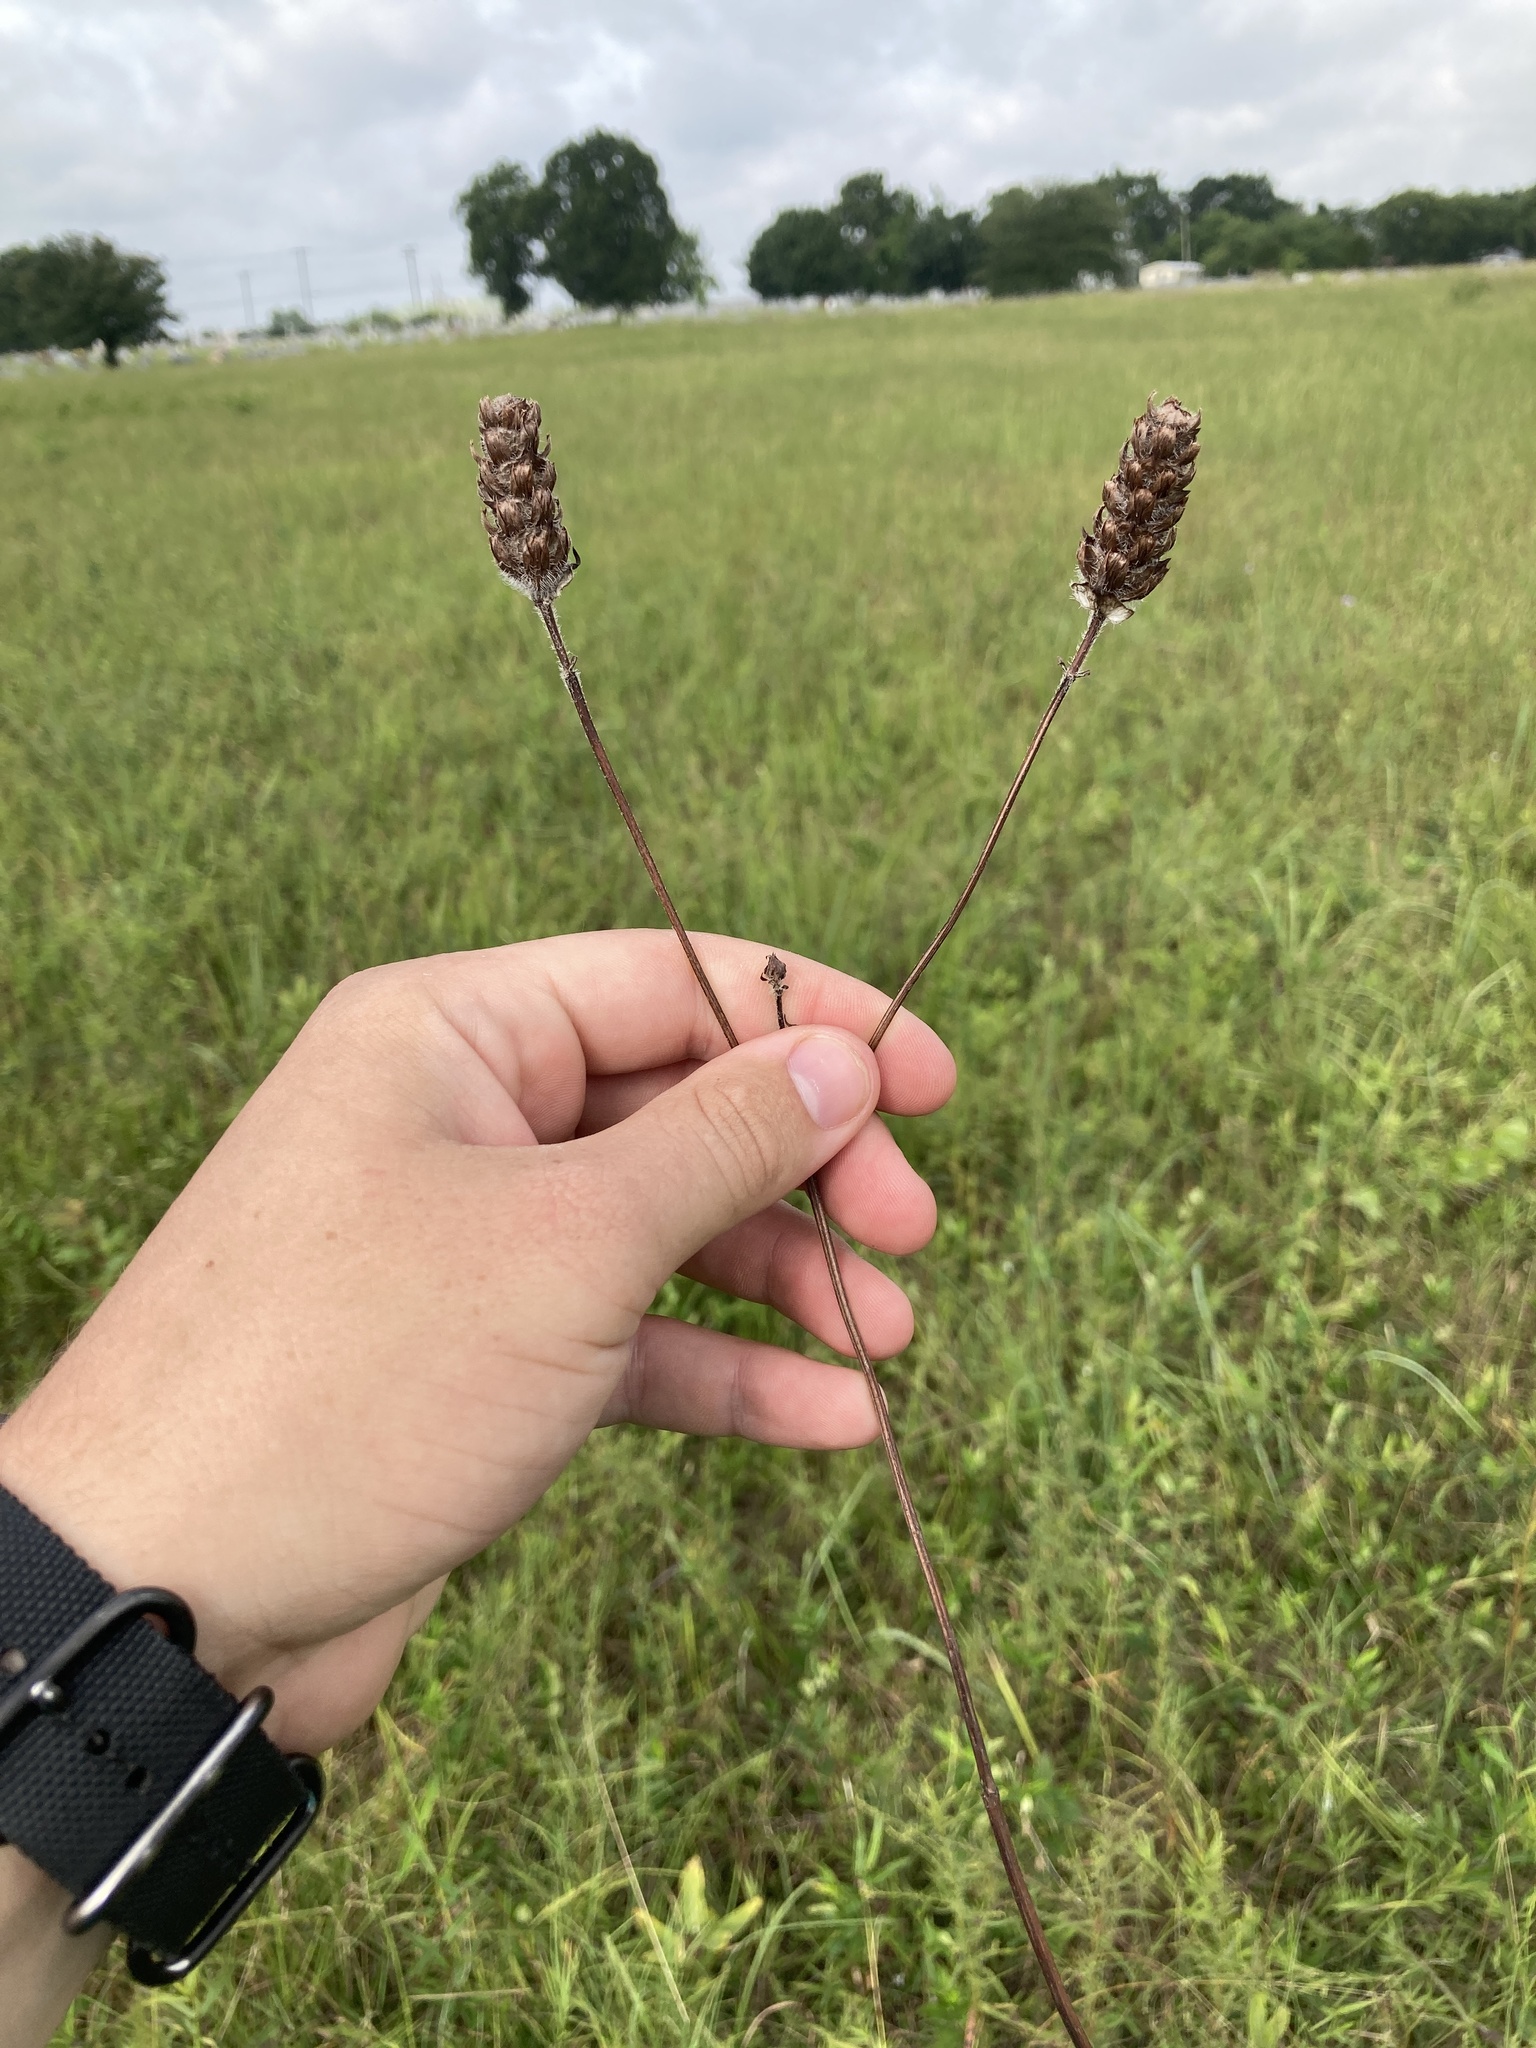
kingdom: Plantae
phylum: Tracheophyta
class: Magnoliopsida
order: Lamiales
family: Lamiaceae
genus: Prunella
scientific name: Prunella vulgaris
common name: Heal-all
